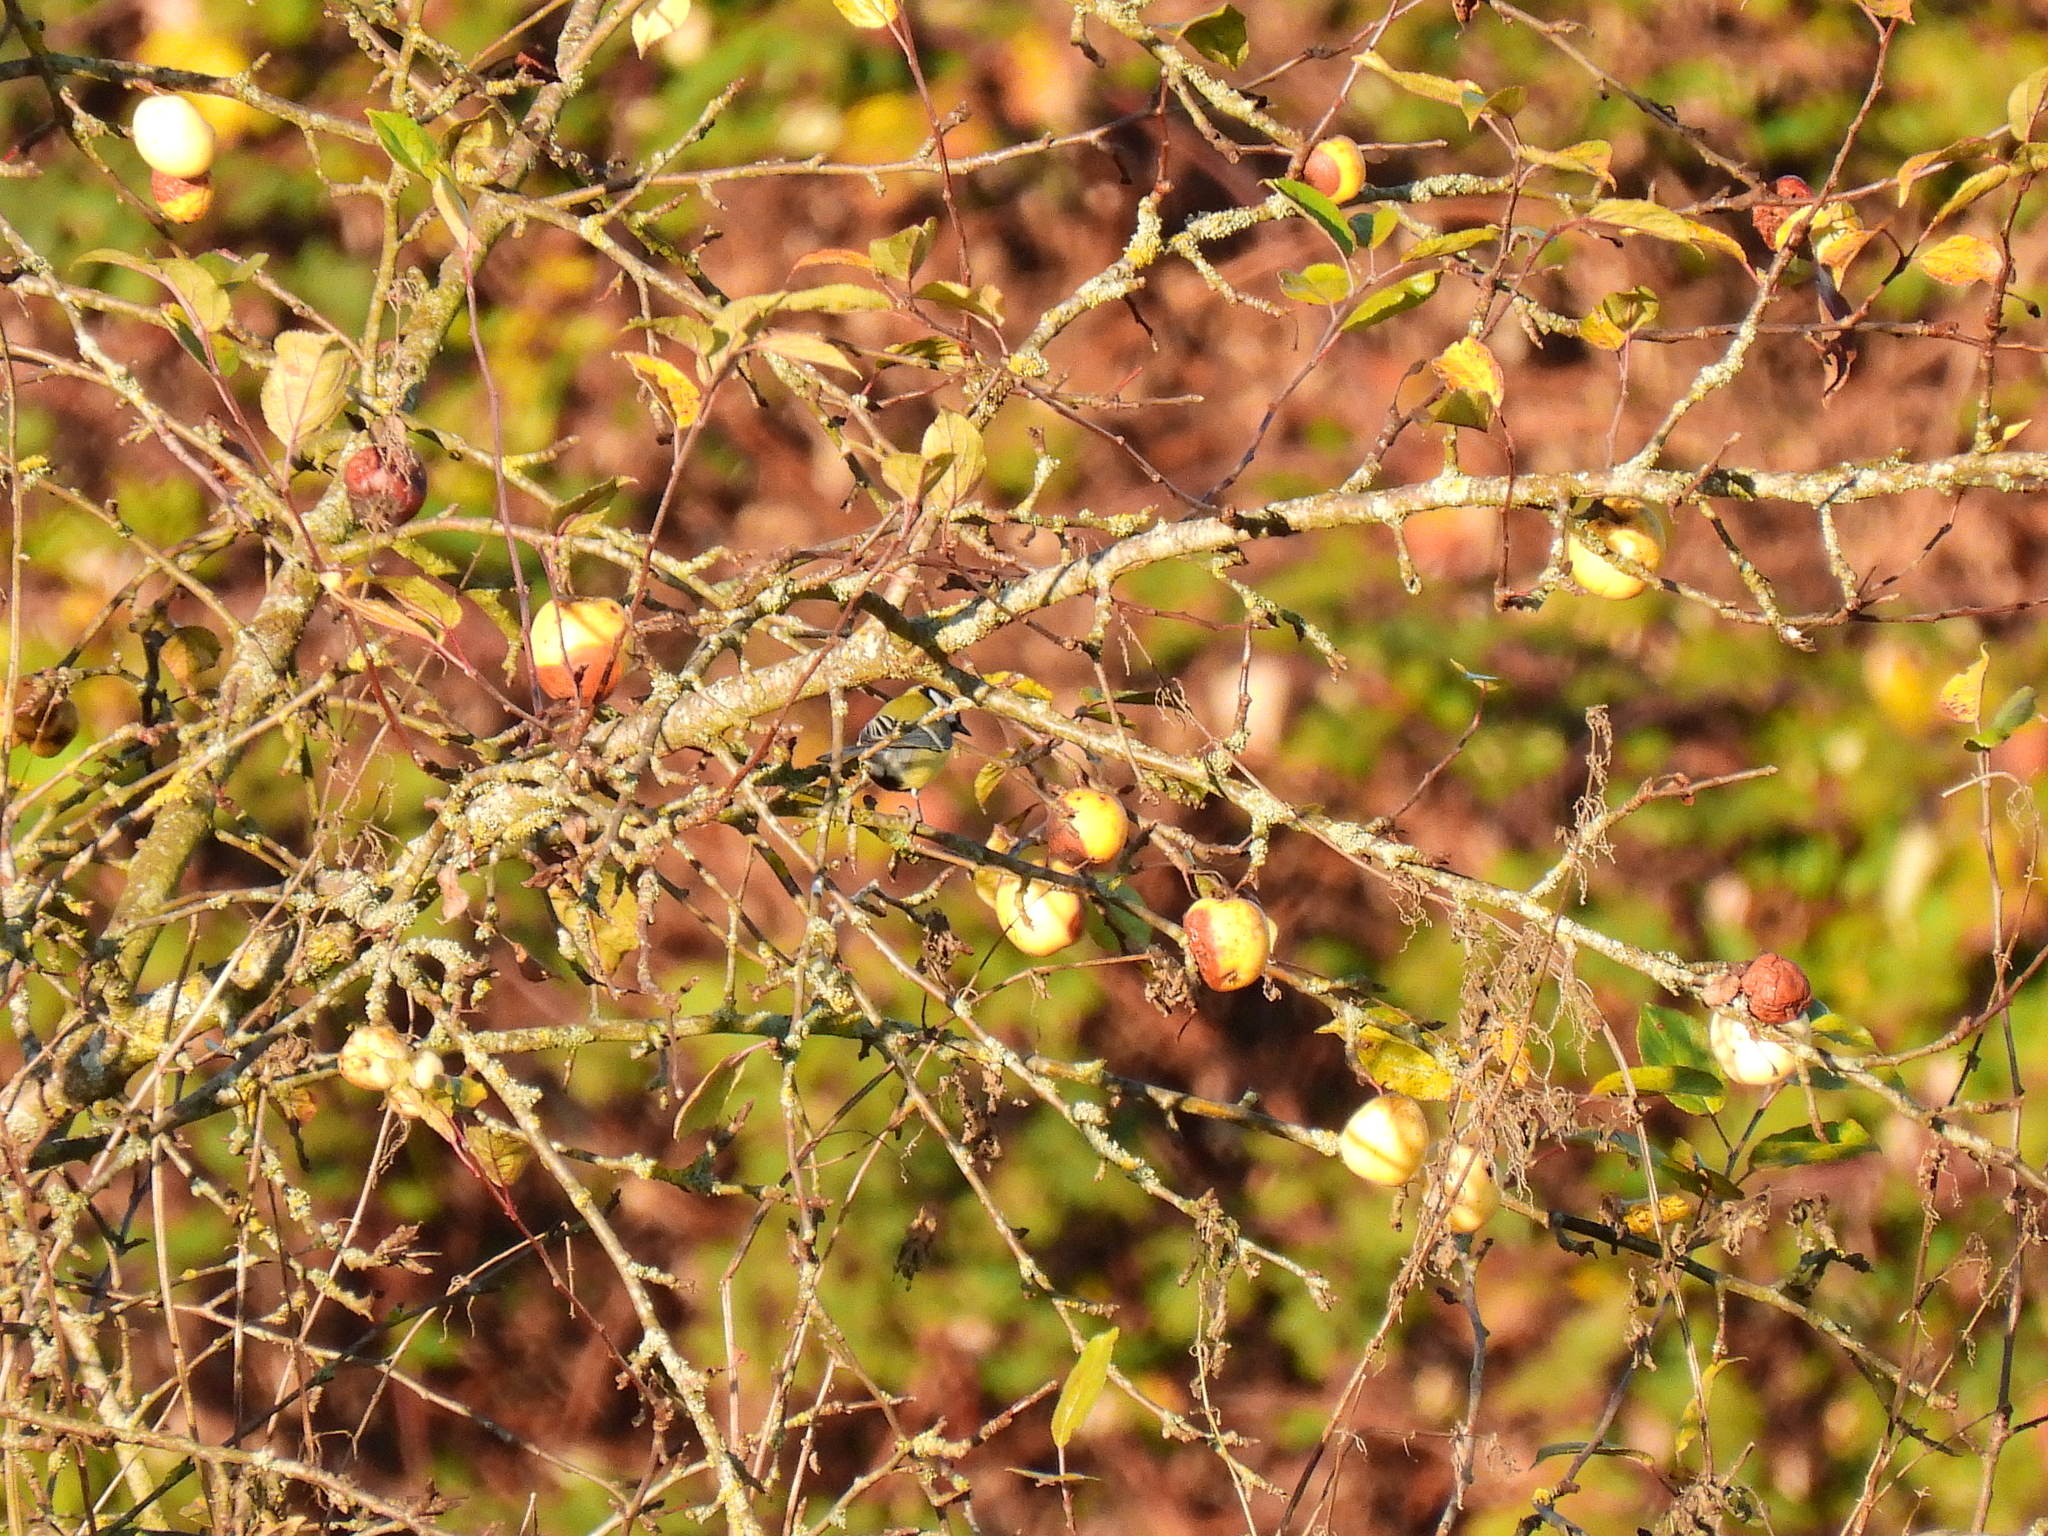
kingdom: Animalia
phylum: Chordata
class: Aves
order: Passeriformes
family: Paridae
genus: Parus
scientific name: Parus major
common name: Great tit
